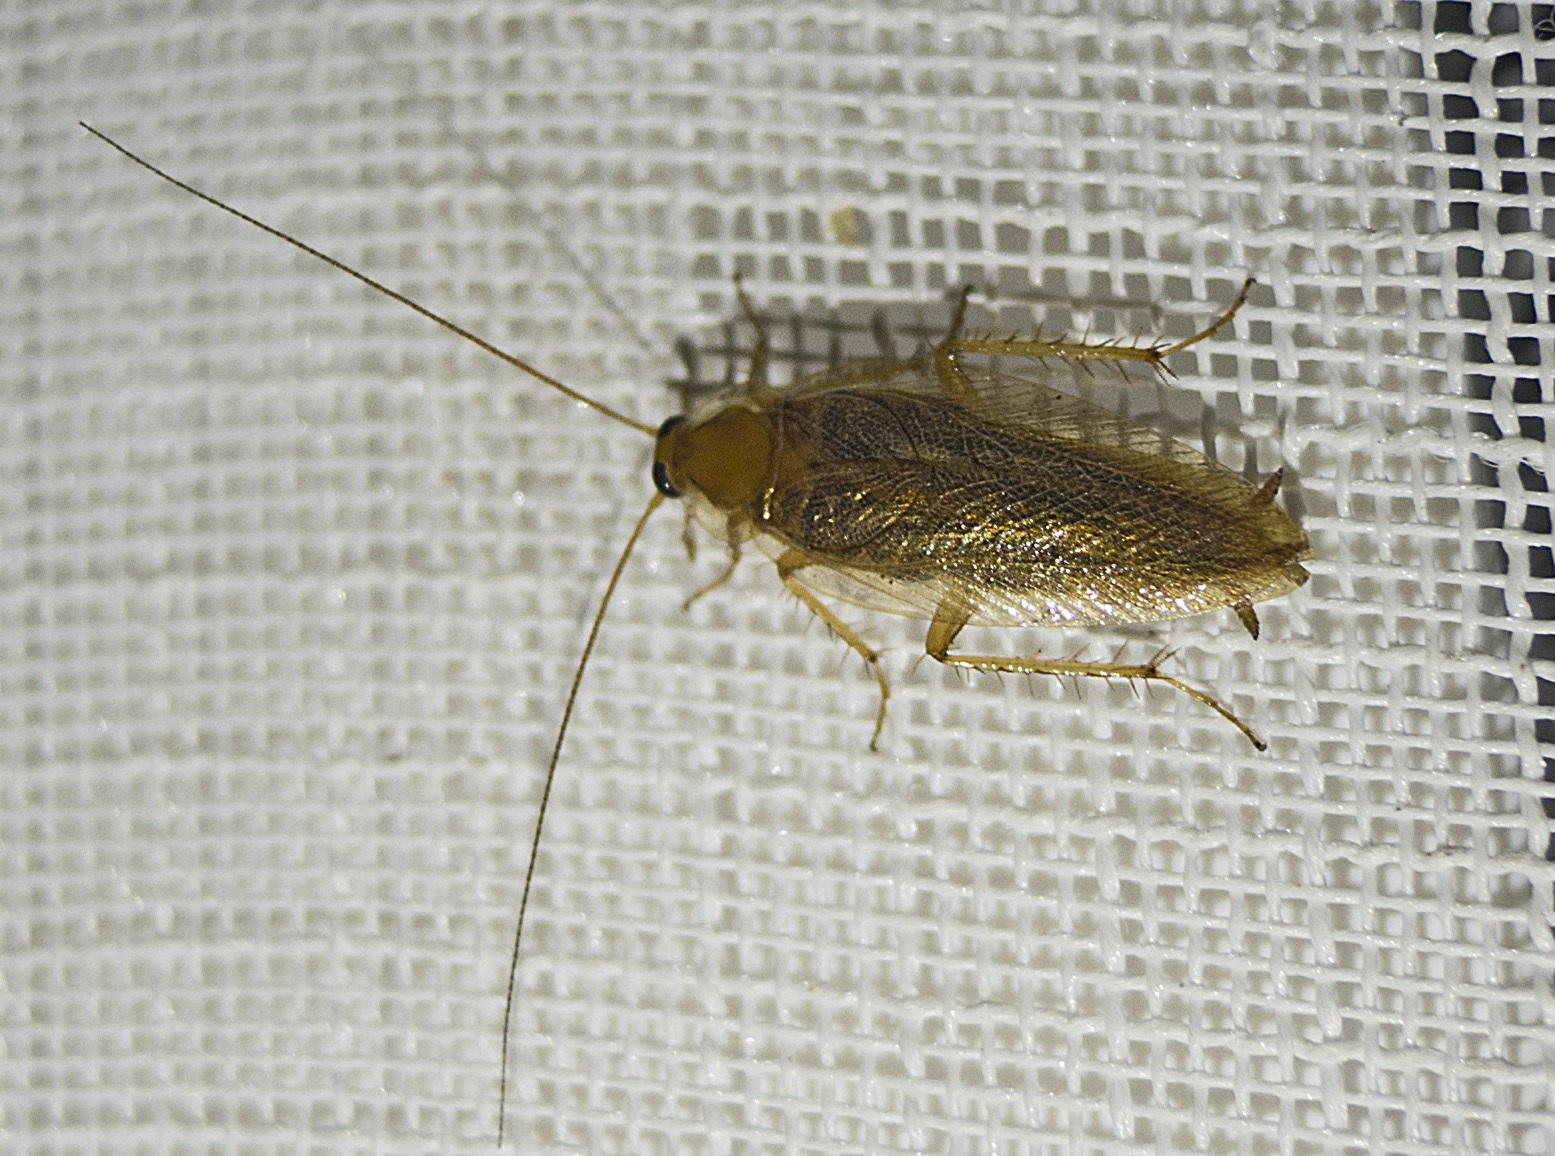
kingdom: Animalia
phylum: Arthropoda
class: Insecta
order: Blattodea
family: Ectobiidae
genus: Ectobius
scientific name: Ectobius vittiventris
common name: Garden cockroach
